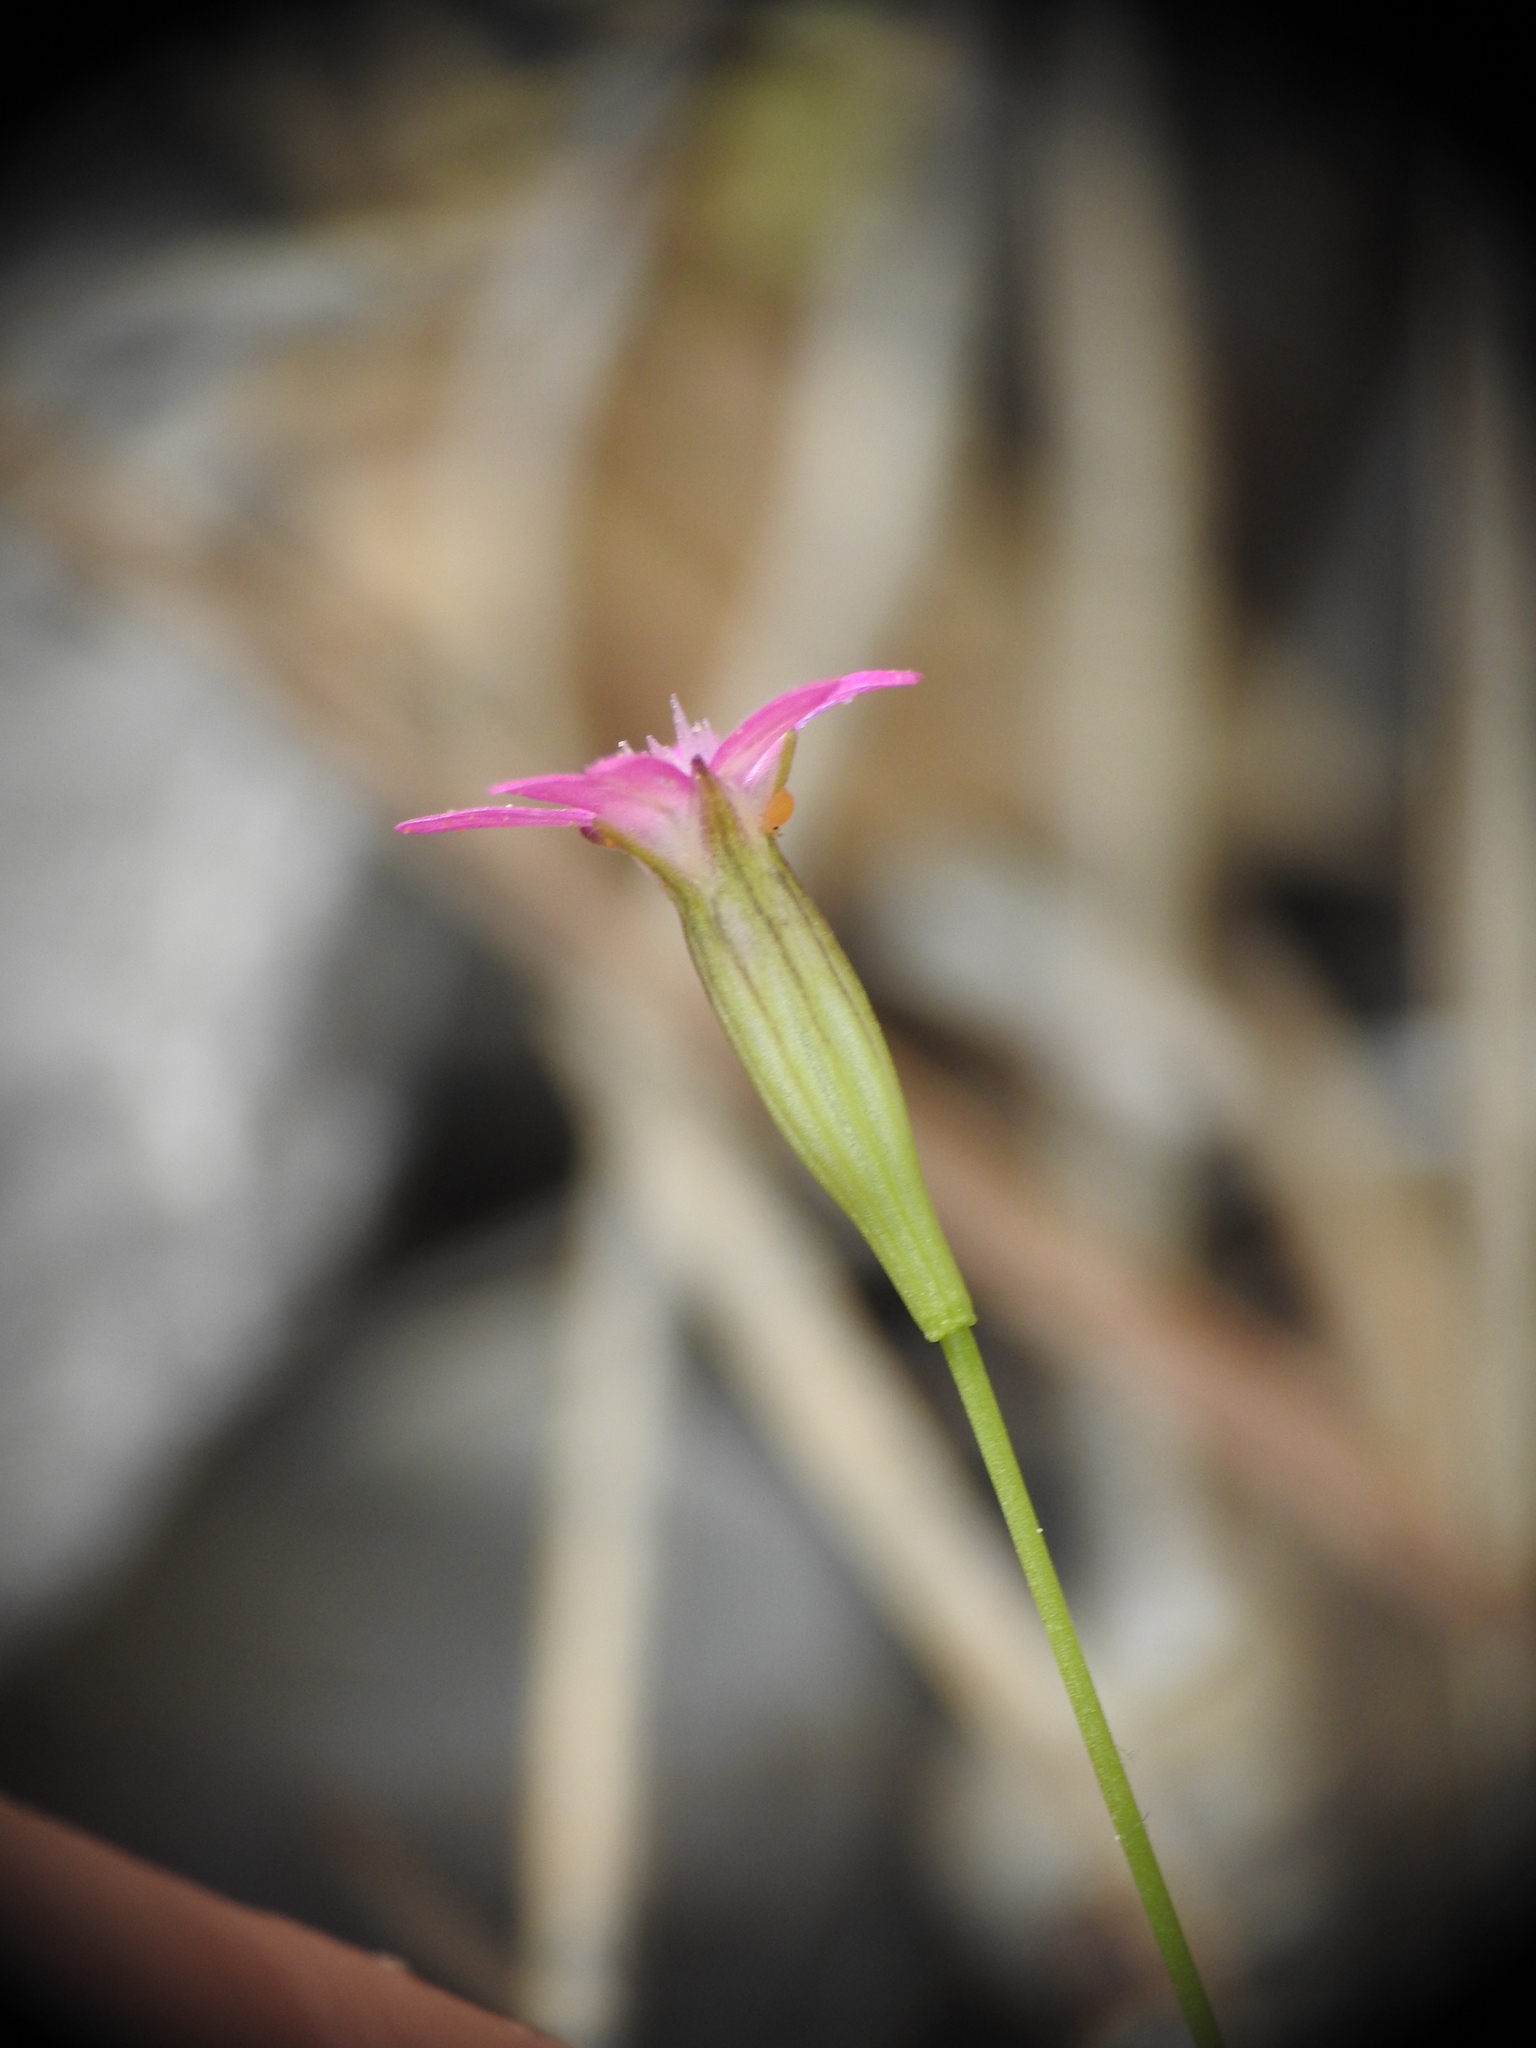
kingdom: Plantae
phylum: Tracheophyta
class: Magnoliopsida
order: Caryophyllales
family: Caryophyllaceae
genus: Silene
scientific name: Silene cretica
